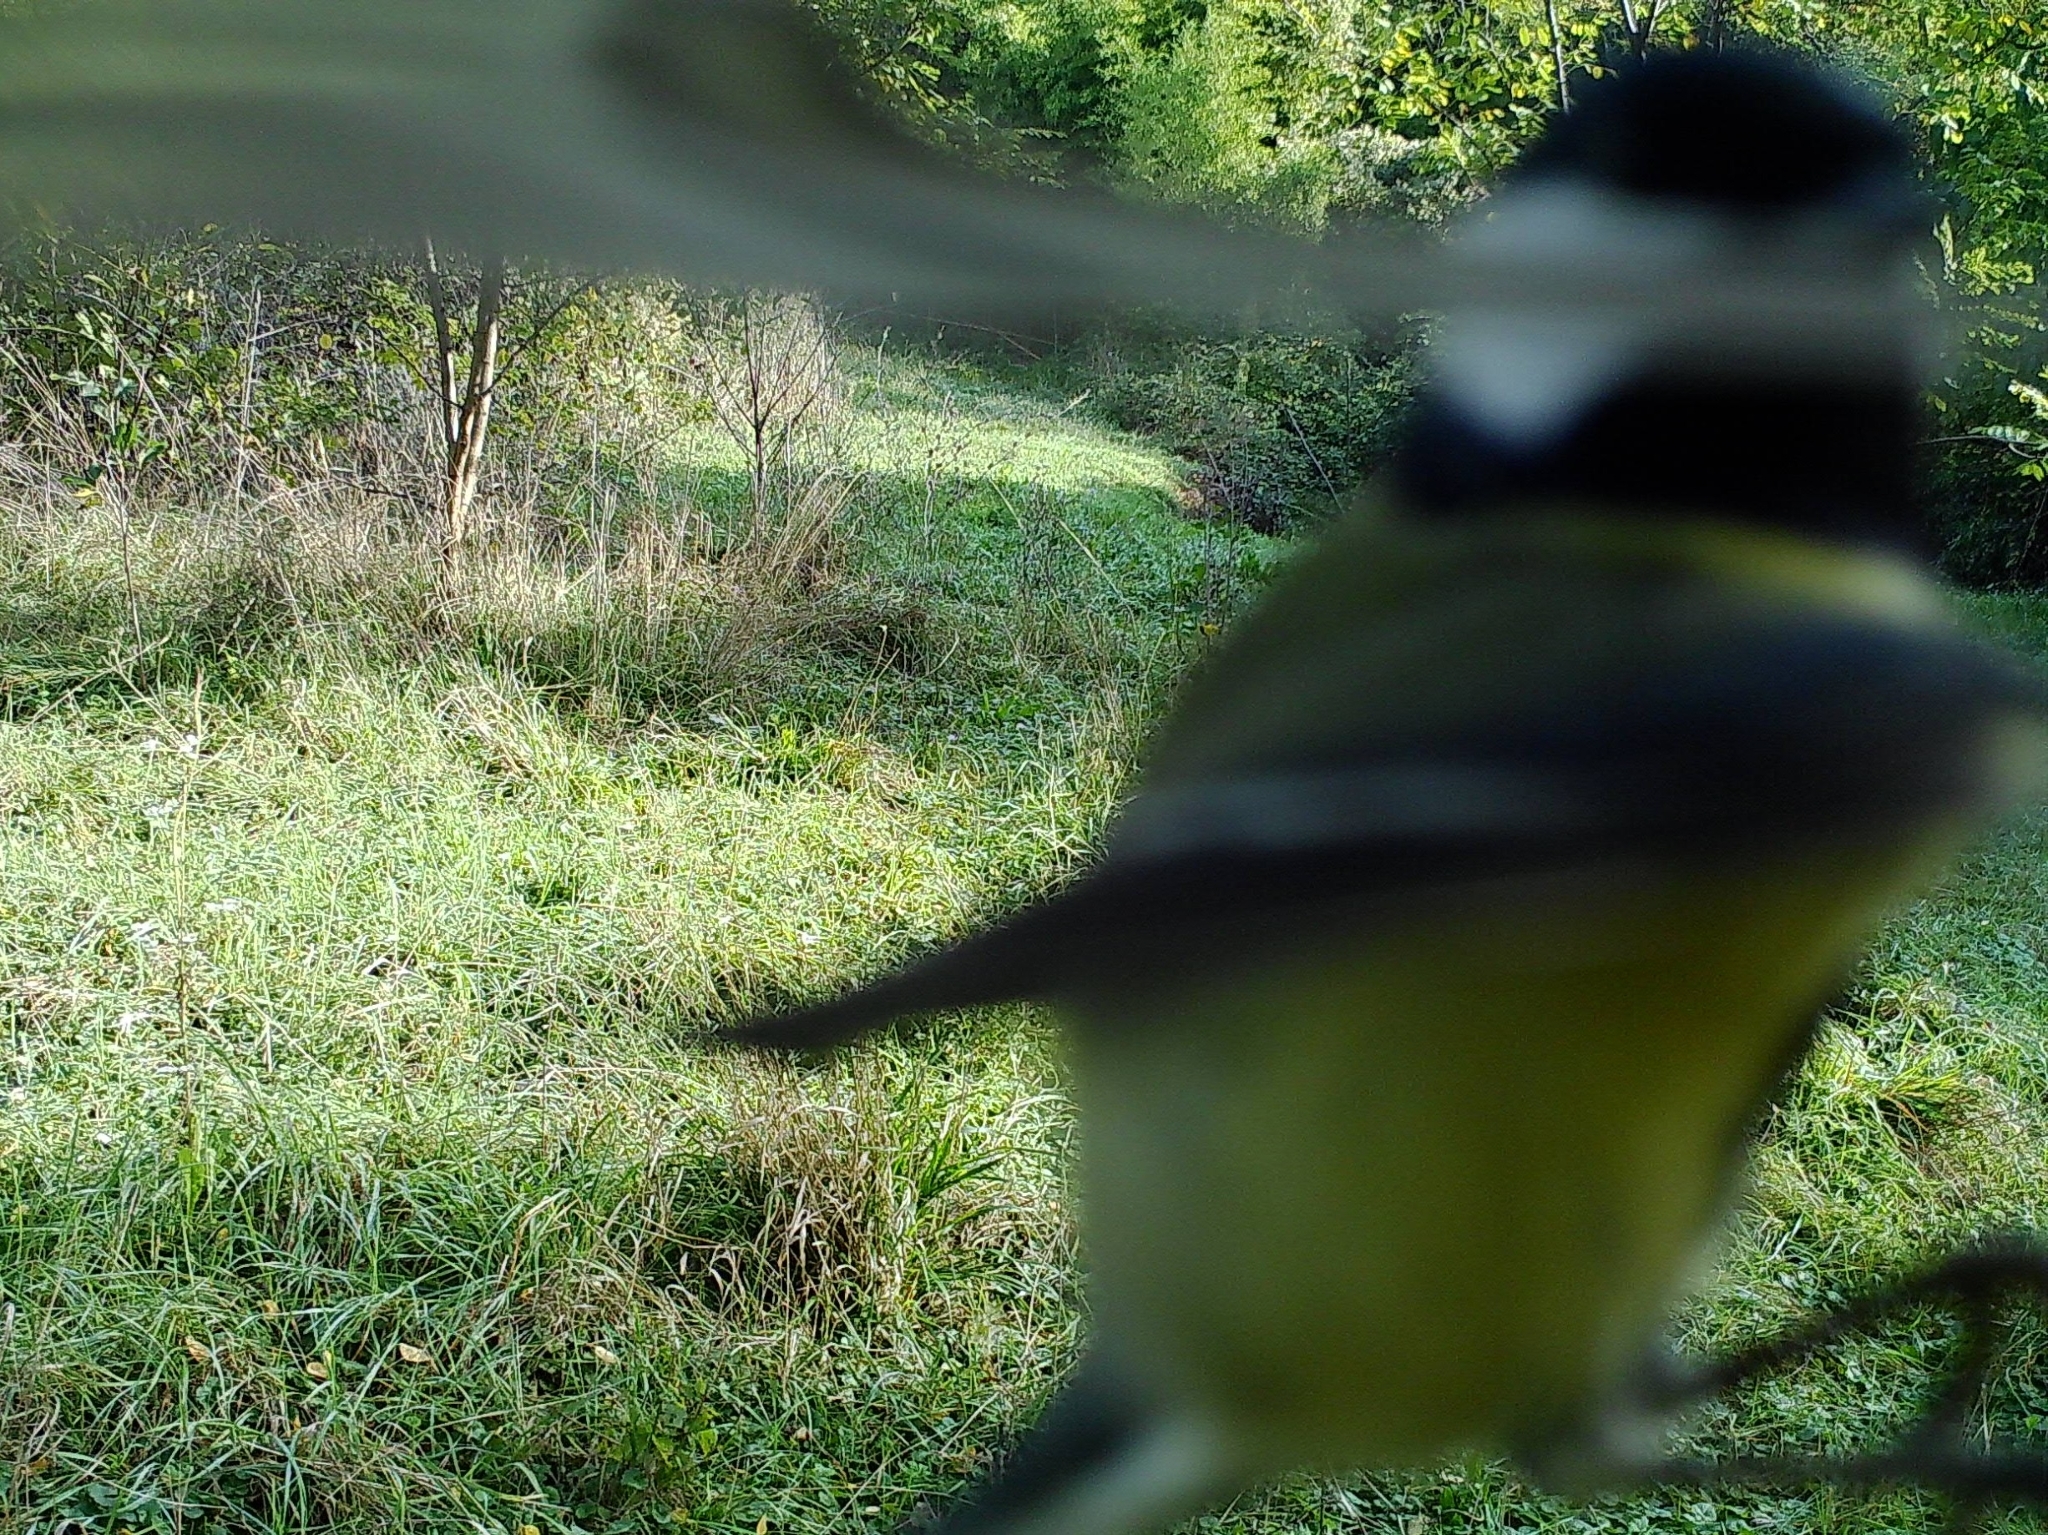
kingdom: Animalia
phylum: Chordata
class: Aves
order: Passeriformes
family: Paridae
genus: Parus
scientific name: Parus major
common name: Great tit
